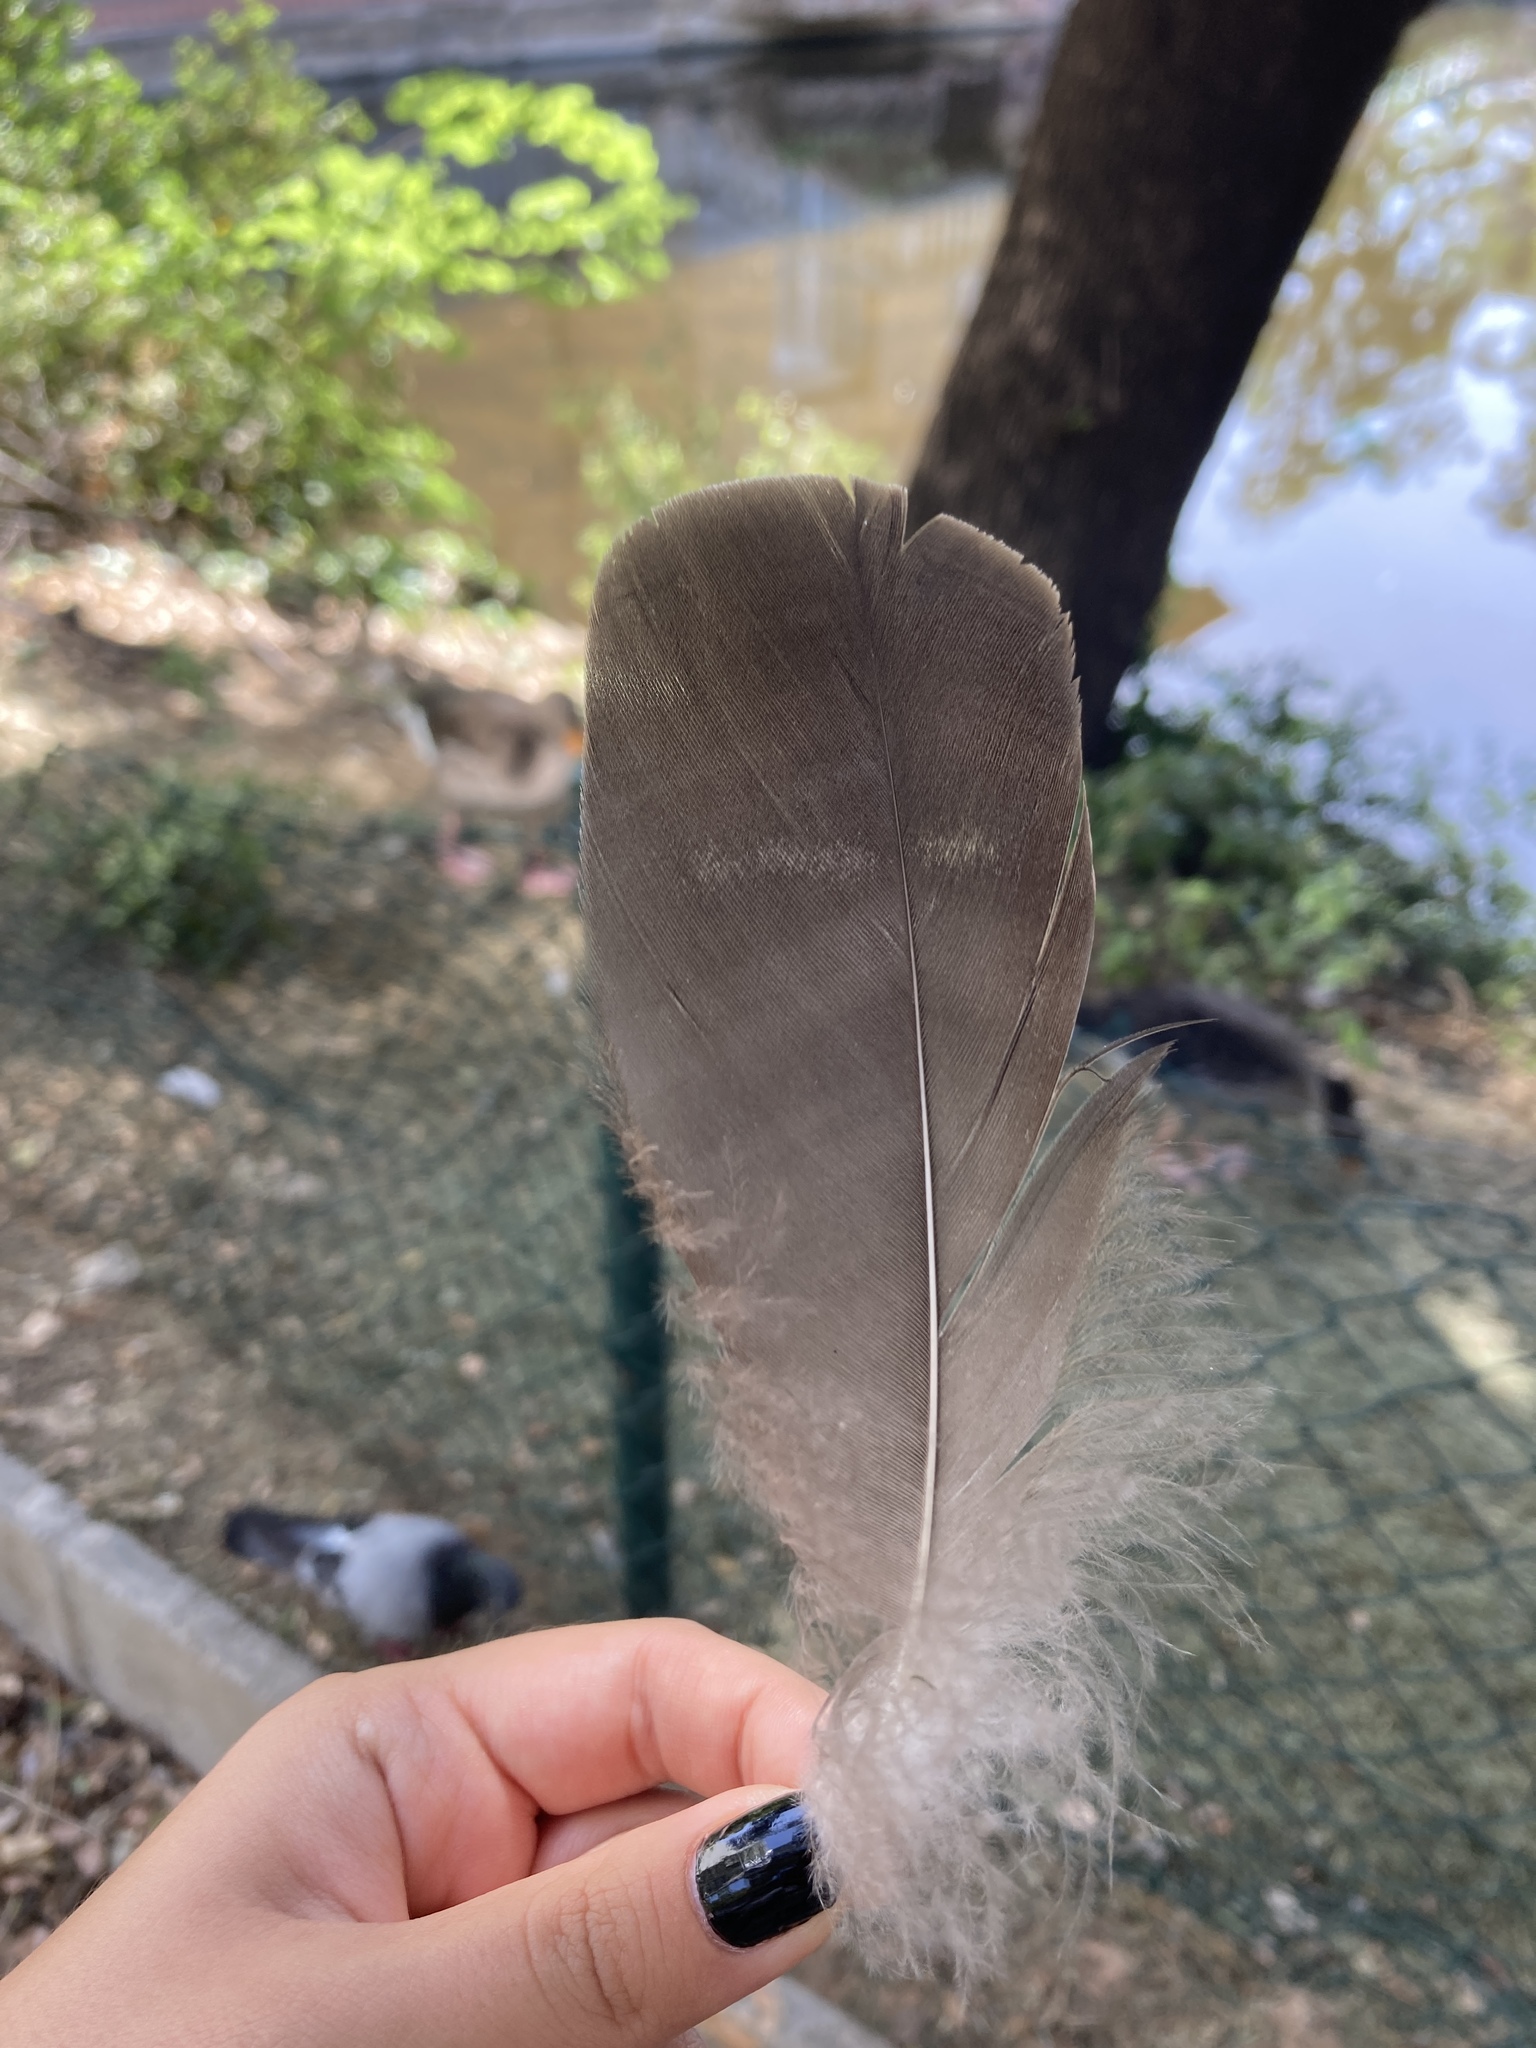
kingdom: Animalia
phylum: Chordata
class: Aves
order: Anseriformes
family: Anatidae
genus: Anser
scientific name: Anser anser
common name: Greylag goose
